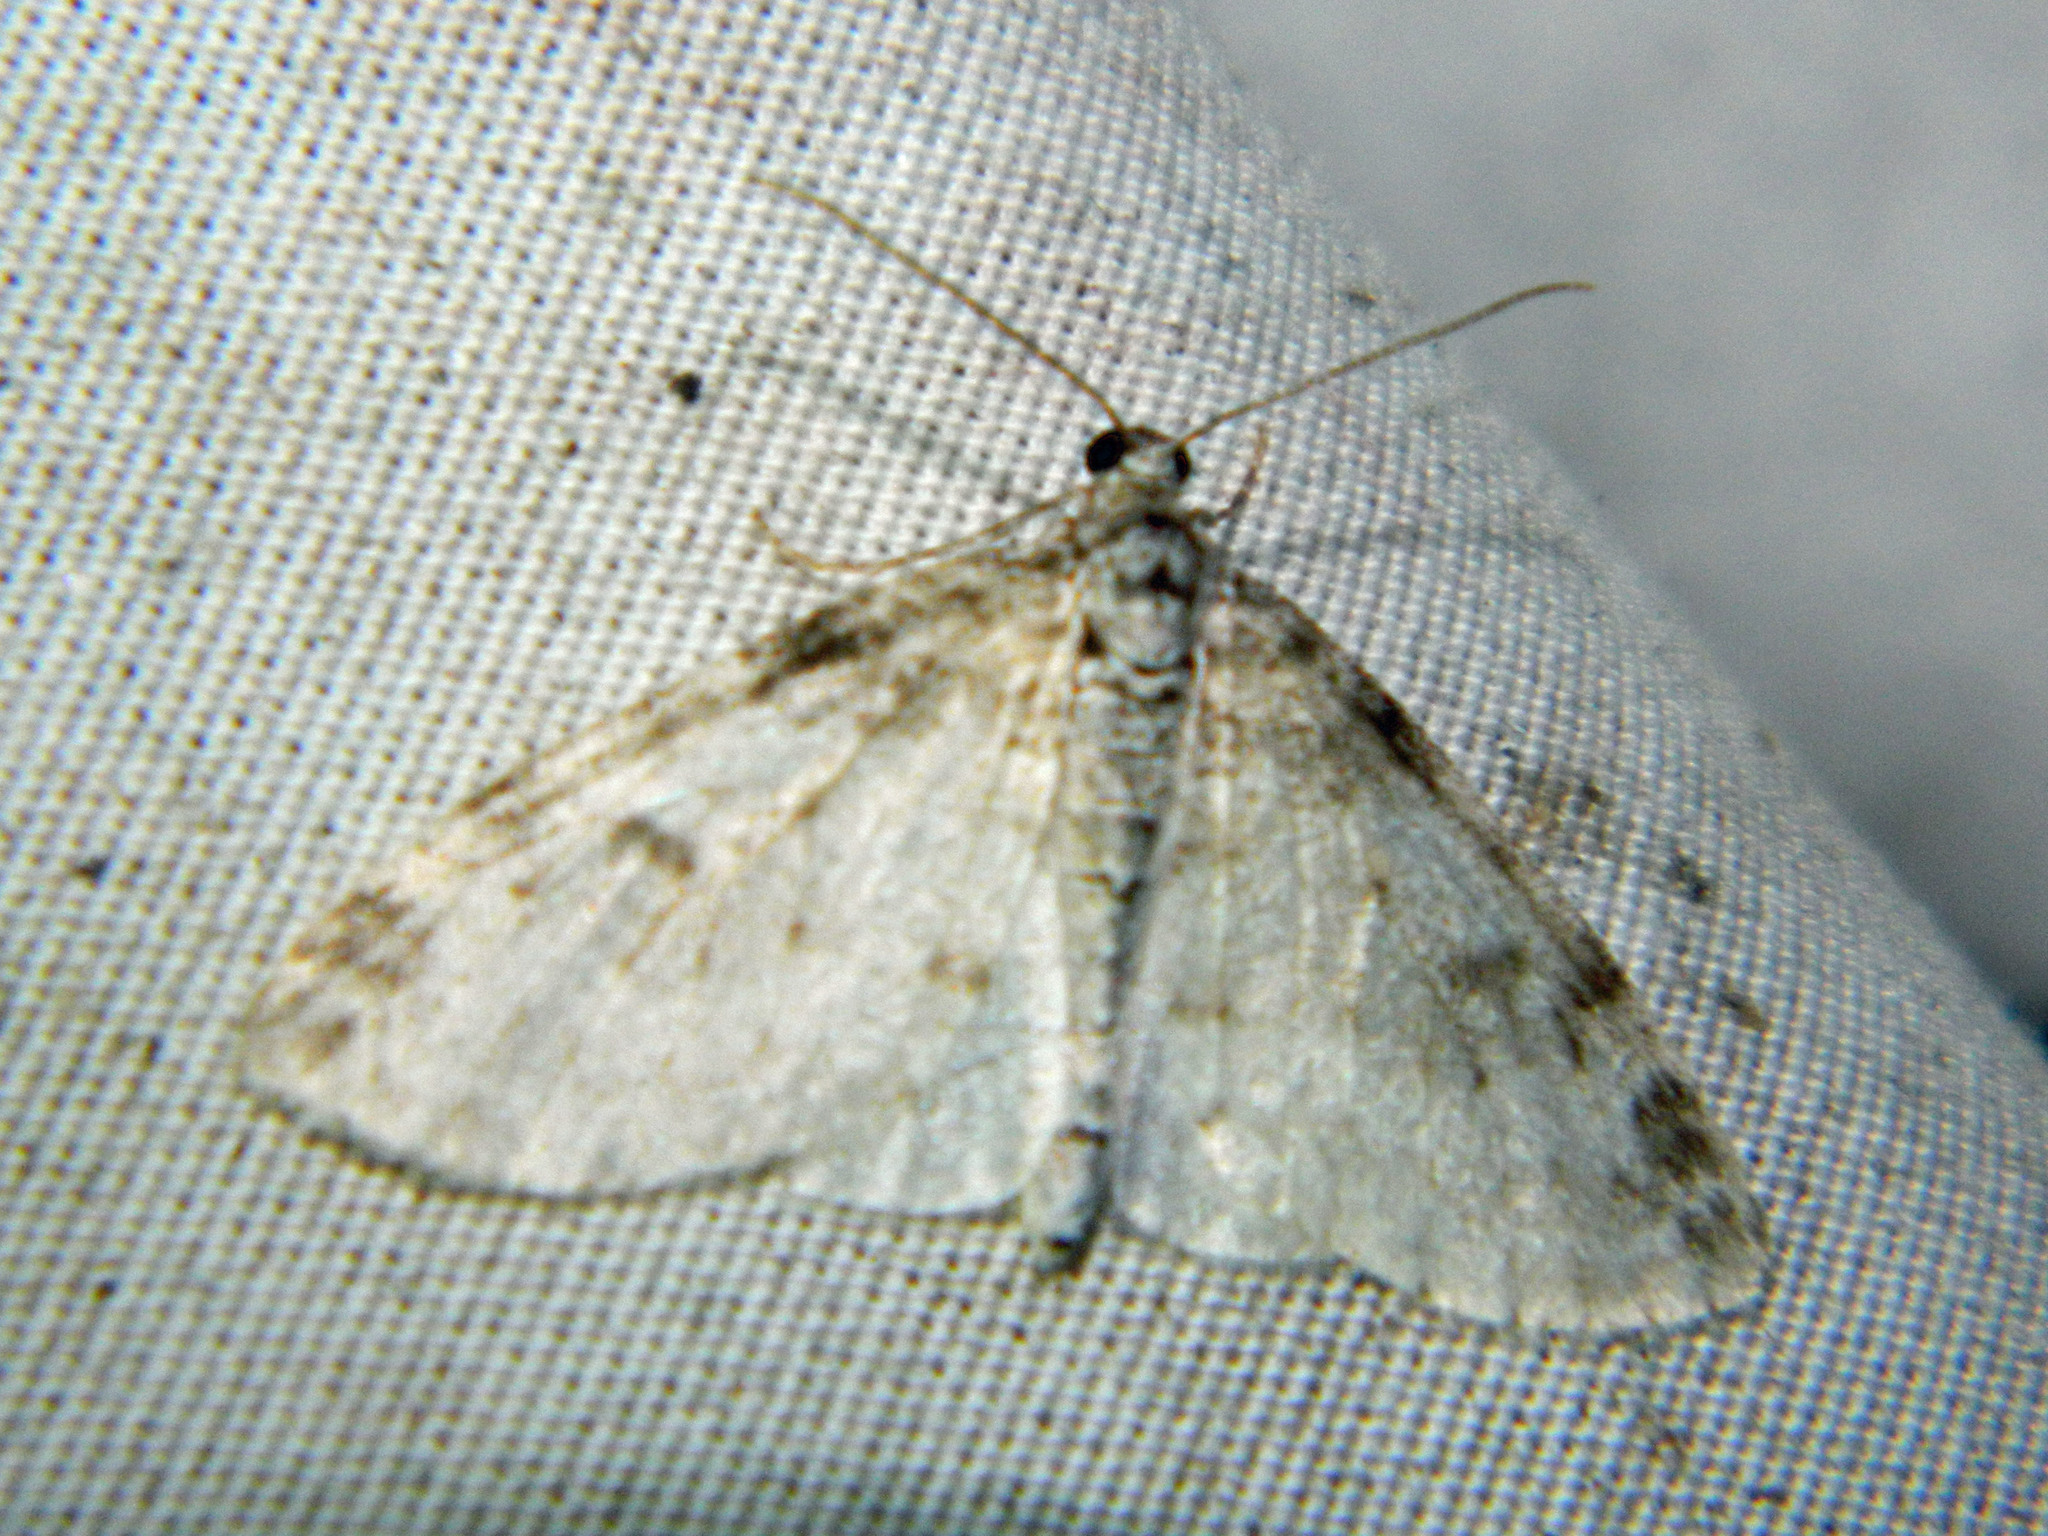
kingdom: Animalia
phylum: Arthropoda
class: Insecta
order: Lepidoptera
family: Geometridae
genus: Lobophora
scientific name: Lobophora nivigerata
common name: Powdered bigwing
